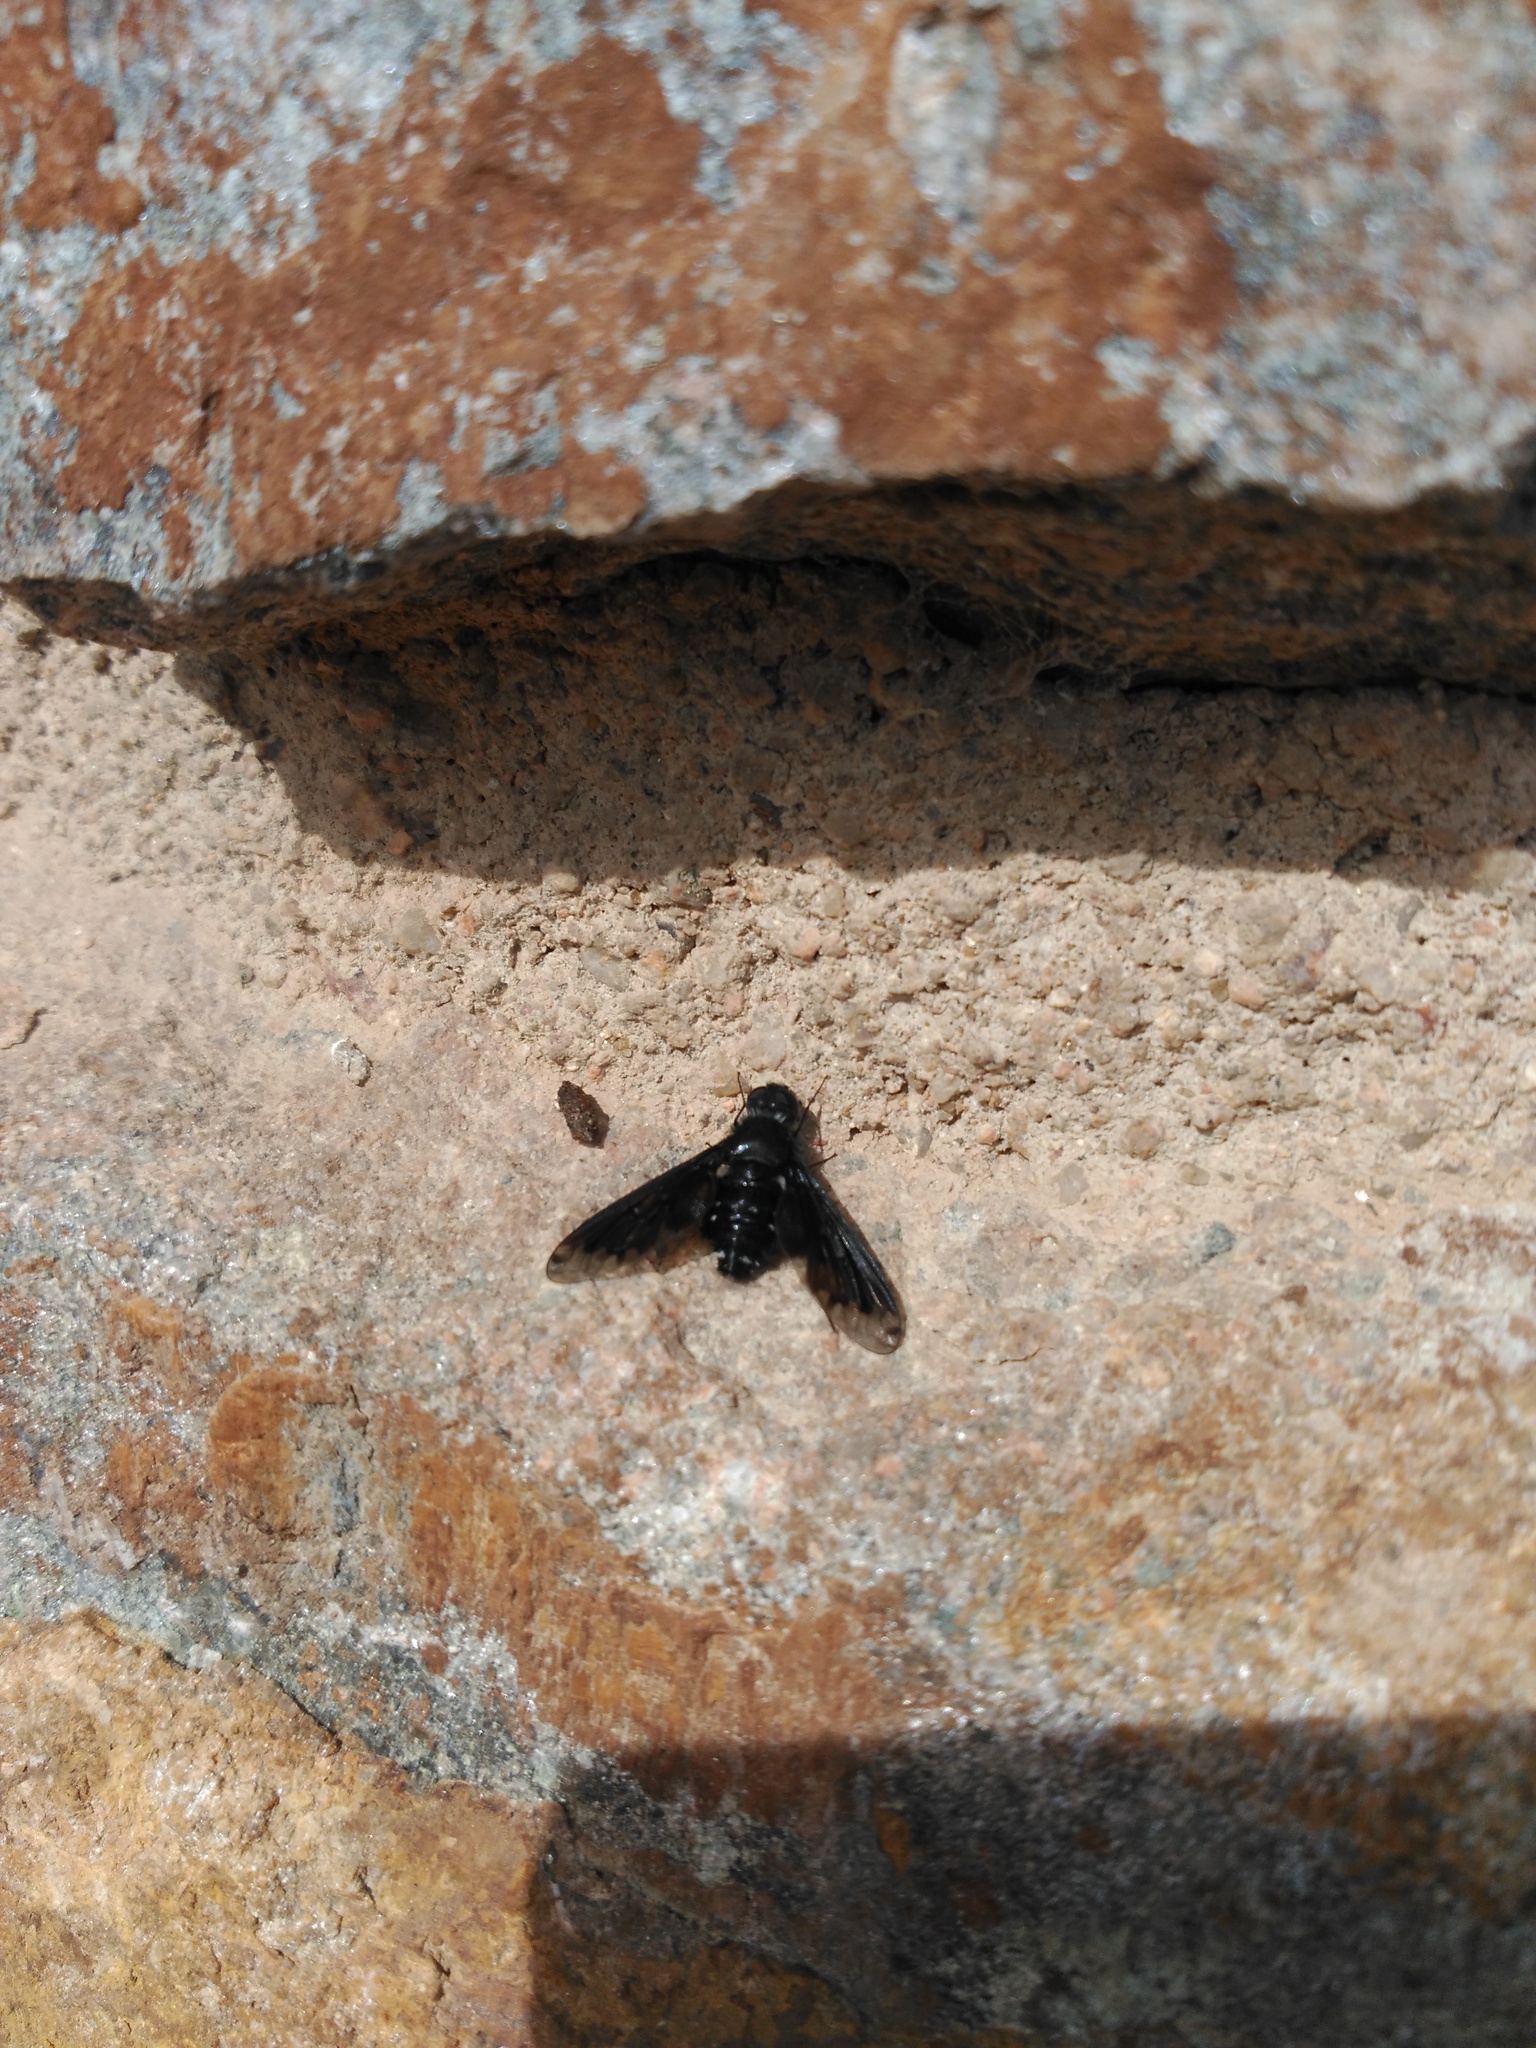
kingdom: Animalia
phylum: Arthropoda
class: Insecta
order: Diptera
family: Bombyliidae
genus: Anthrax
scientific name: Anthrax anthrax
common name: Anthracite bee-fly
